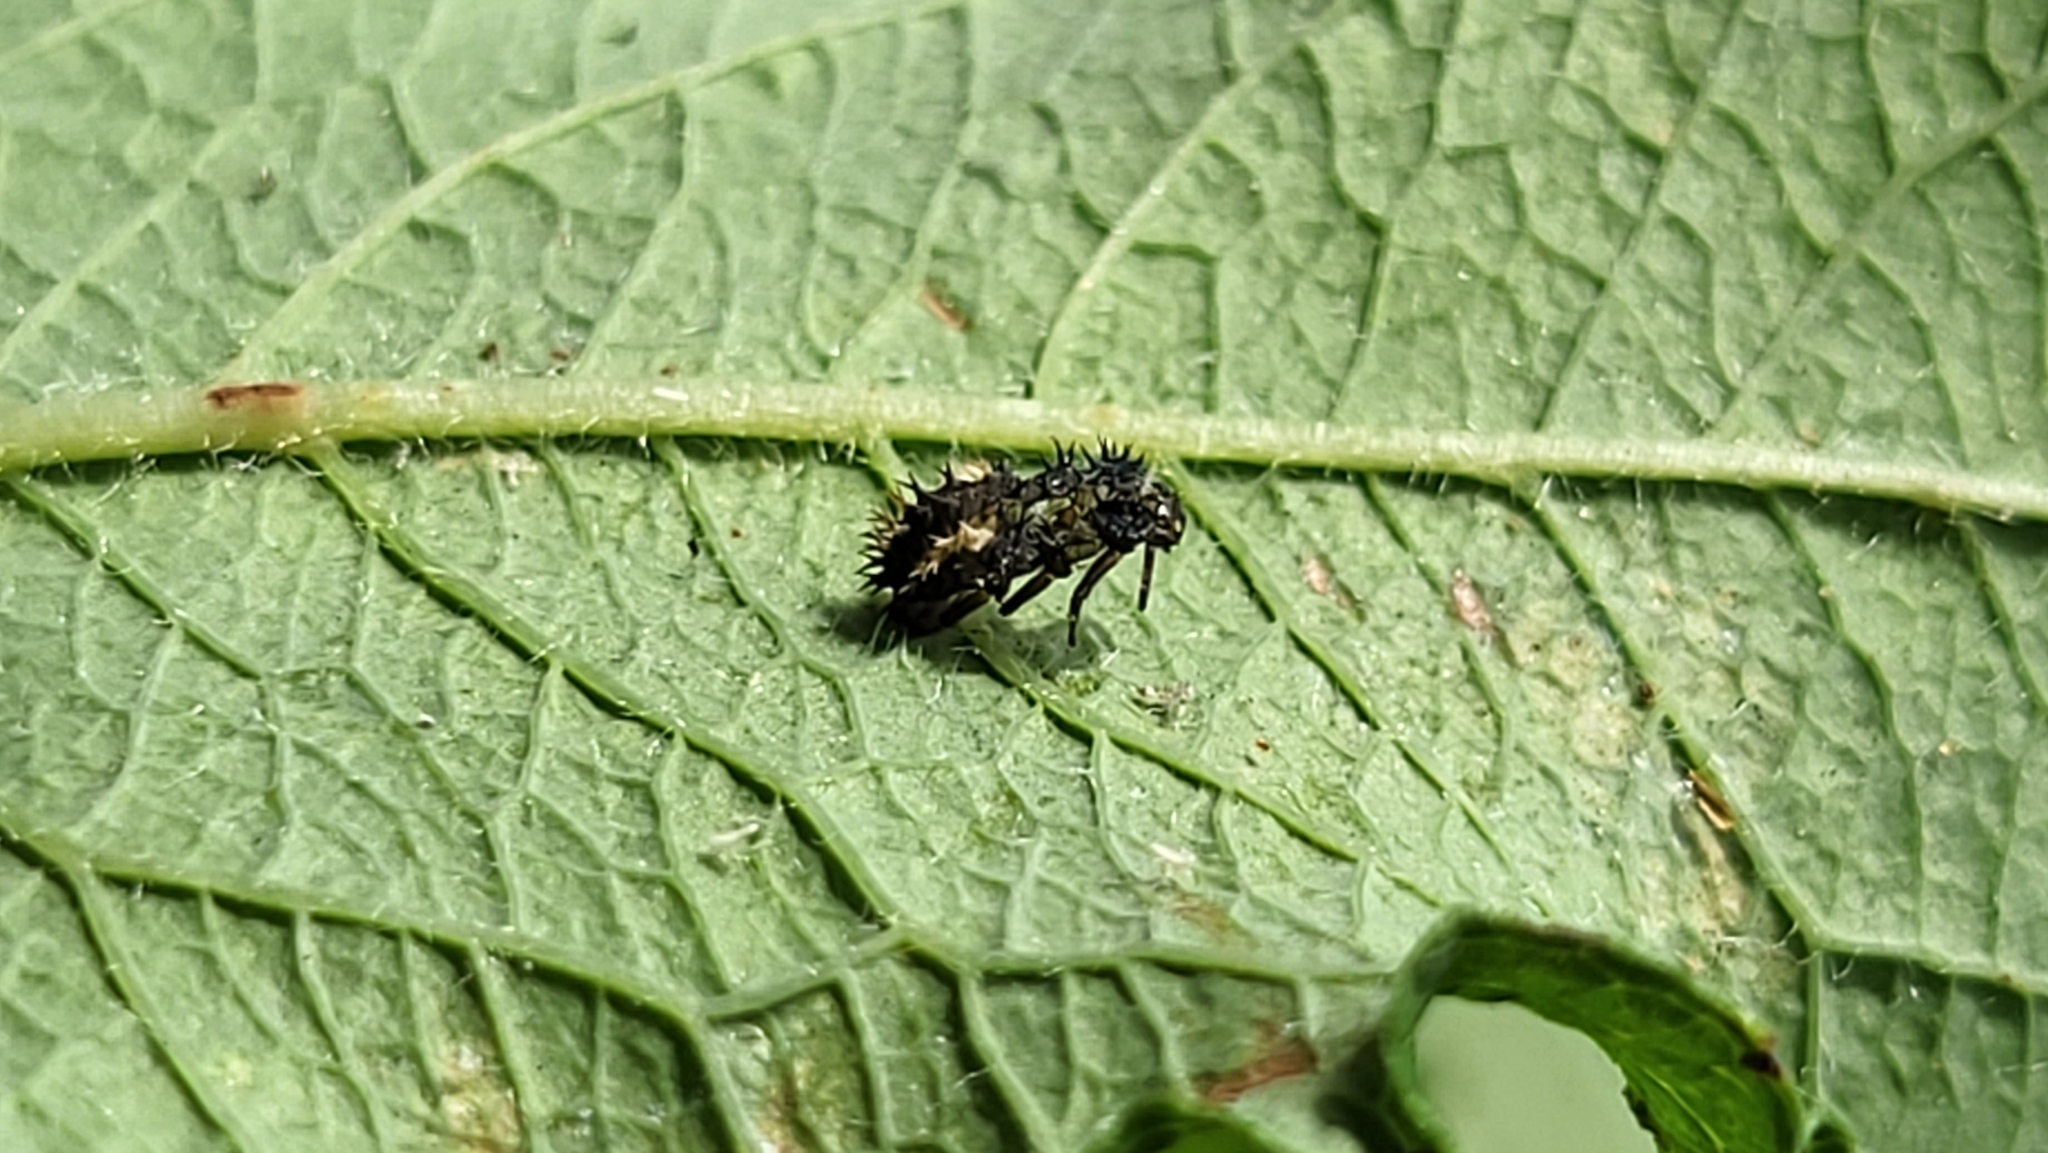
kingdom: Animalia
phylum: Arthropoda
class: Insecta
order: Coleoptera
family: Coccinellidae
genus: Harmonia
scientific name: Harmonia axyridis
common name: Harlequin ladybird
